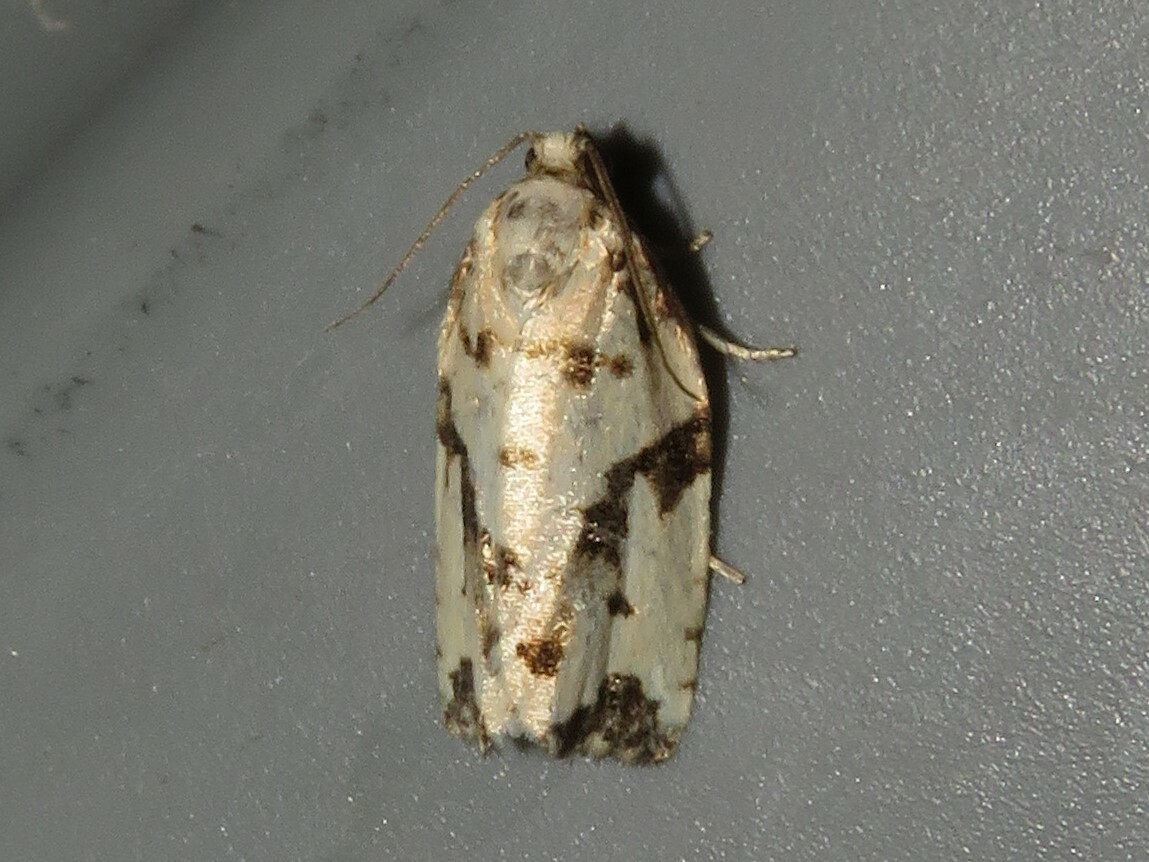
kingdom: Animalia
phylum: Arthropoda
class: Insecta
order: Lepidoptera
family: Tortricidae
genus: Archips
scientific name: Archips dissitana
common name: Boldly-marked archips moth
